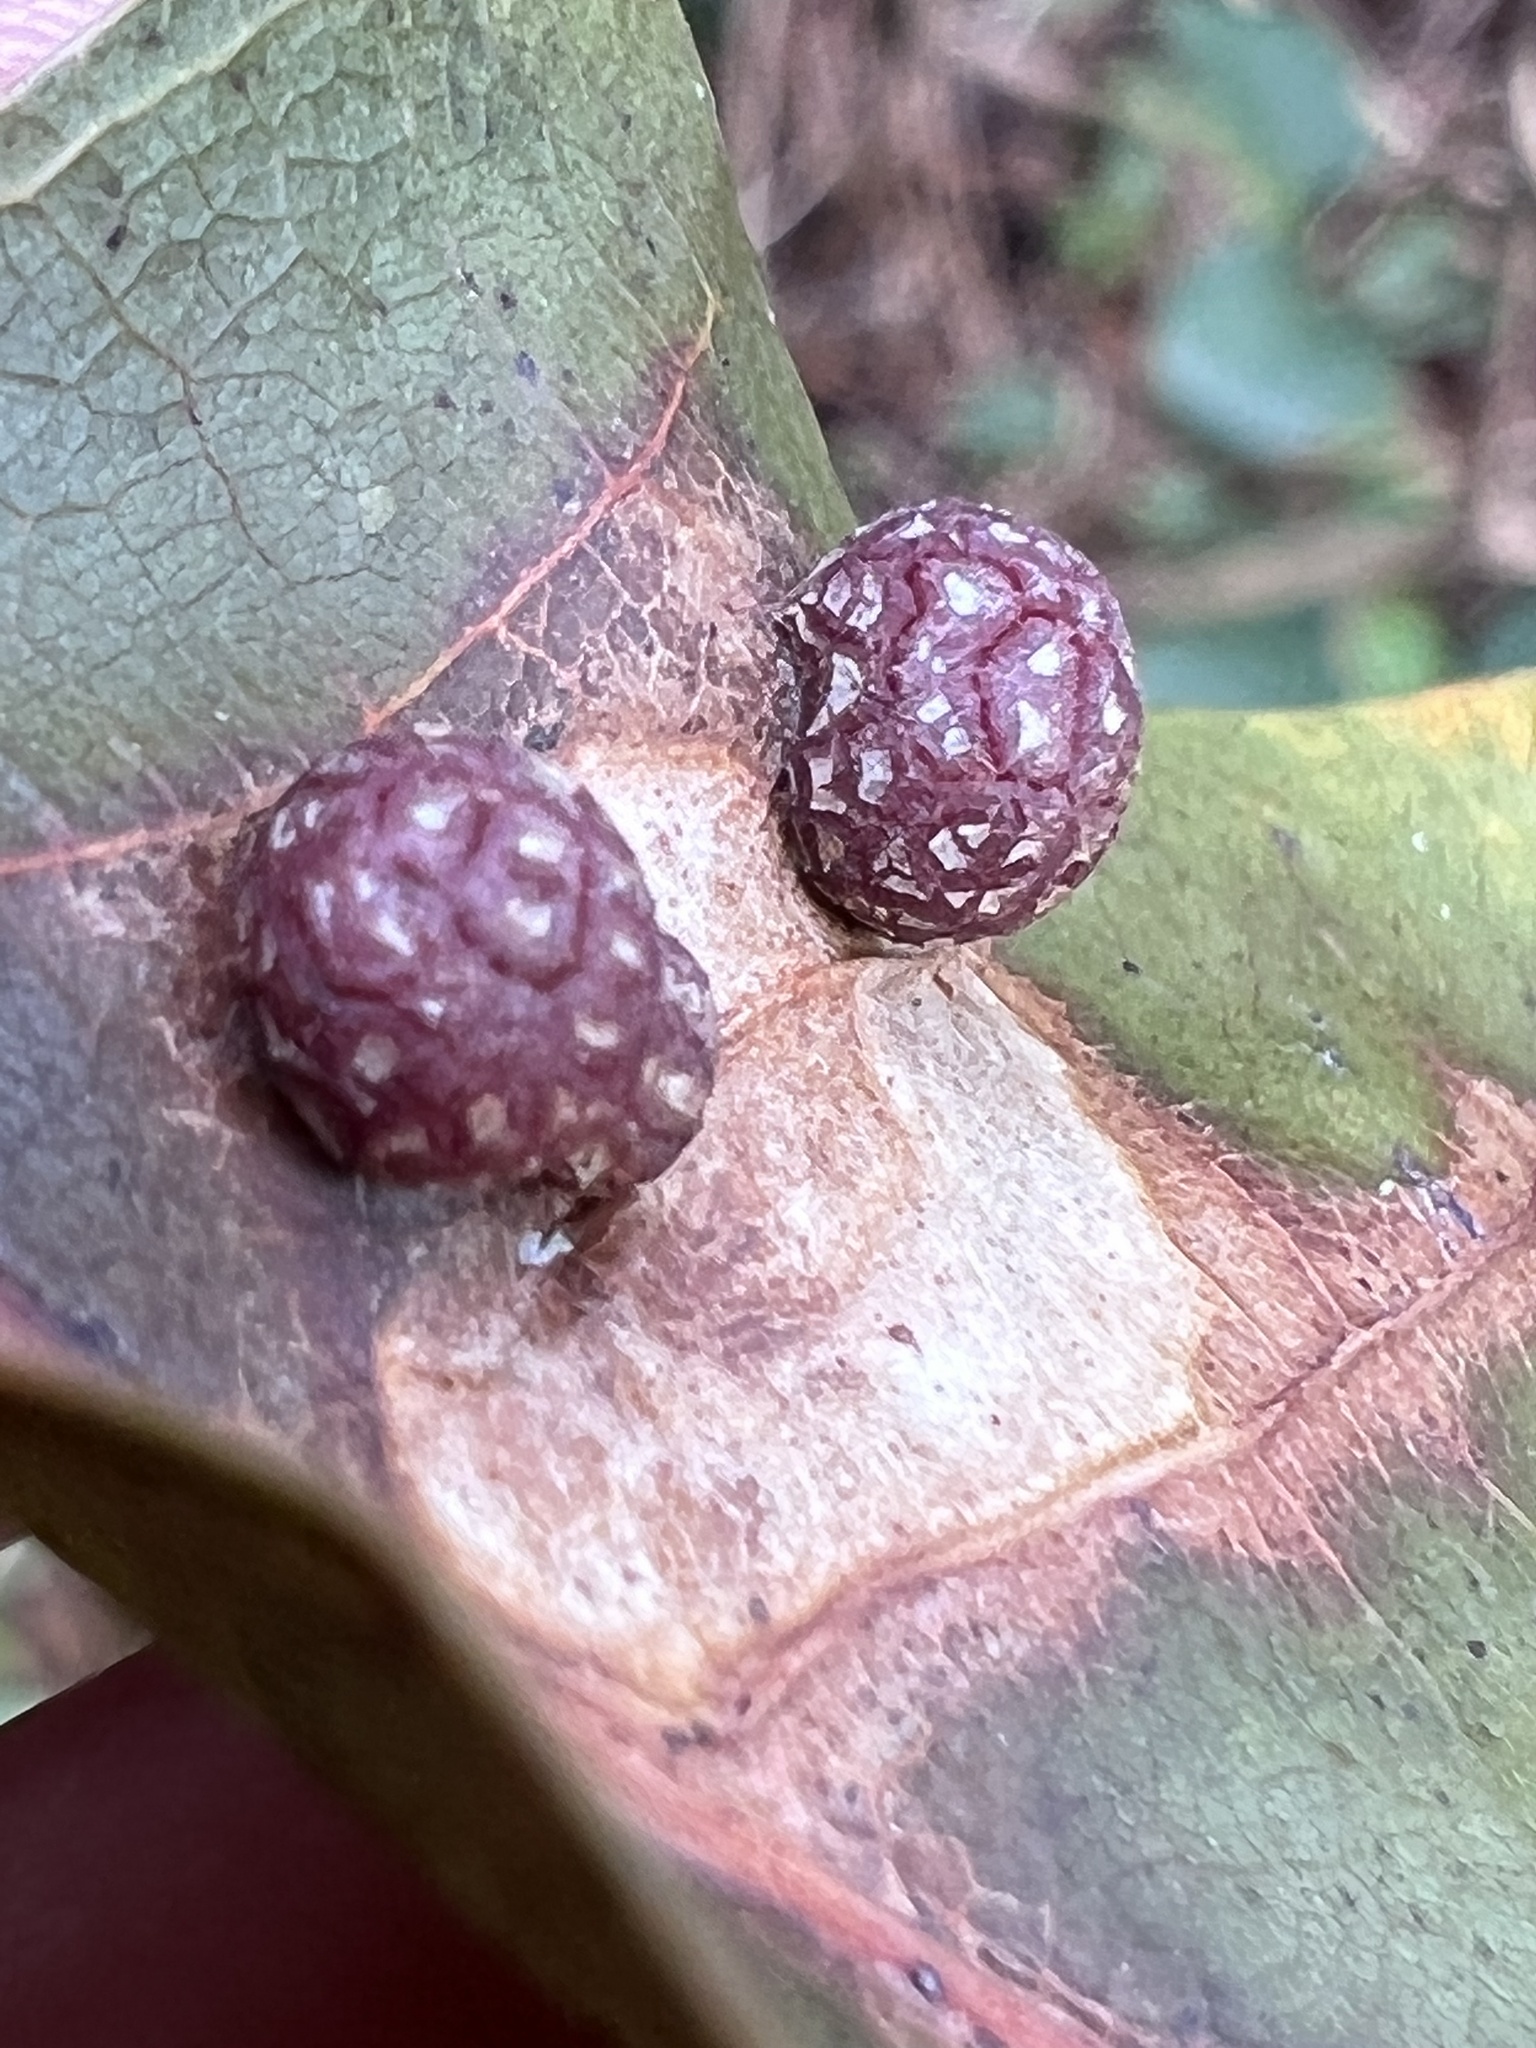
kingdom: Animalia
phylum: Arthropoda
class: Insecta
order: Diptera
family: Cecidomyiidae
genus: Polystepha
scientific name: Polystepha pilulae
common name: Oak leaf gall midge
